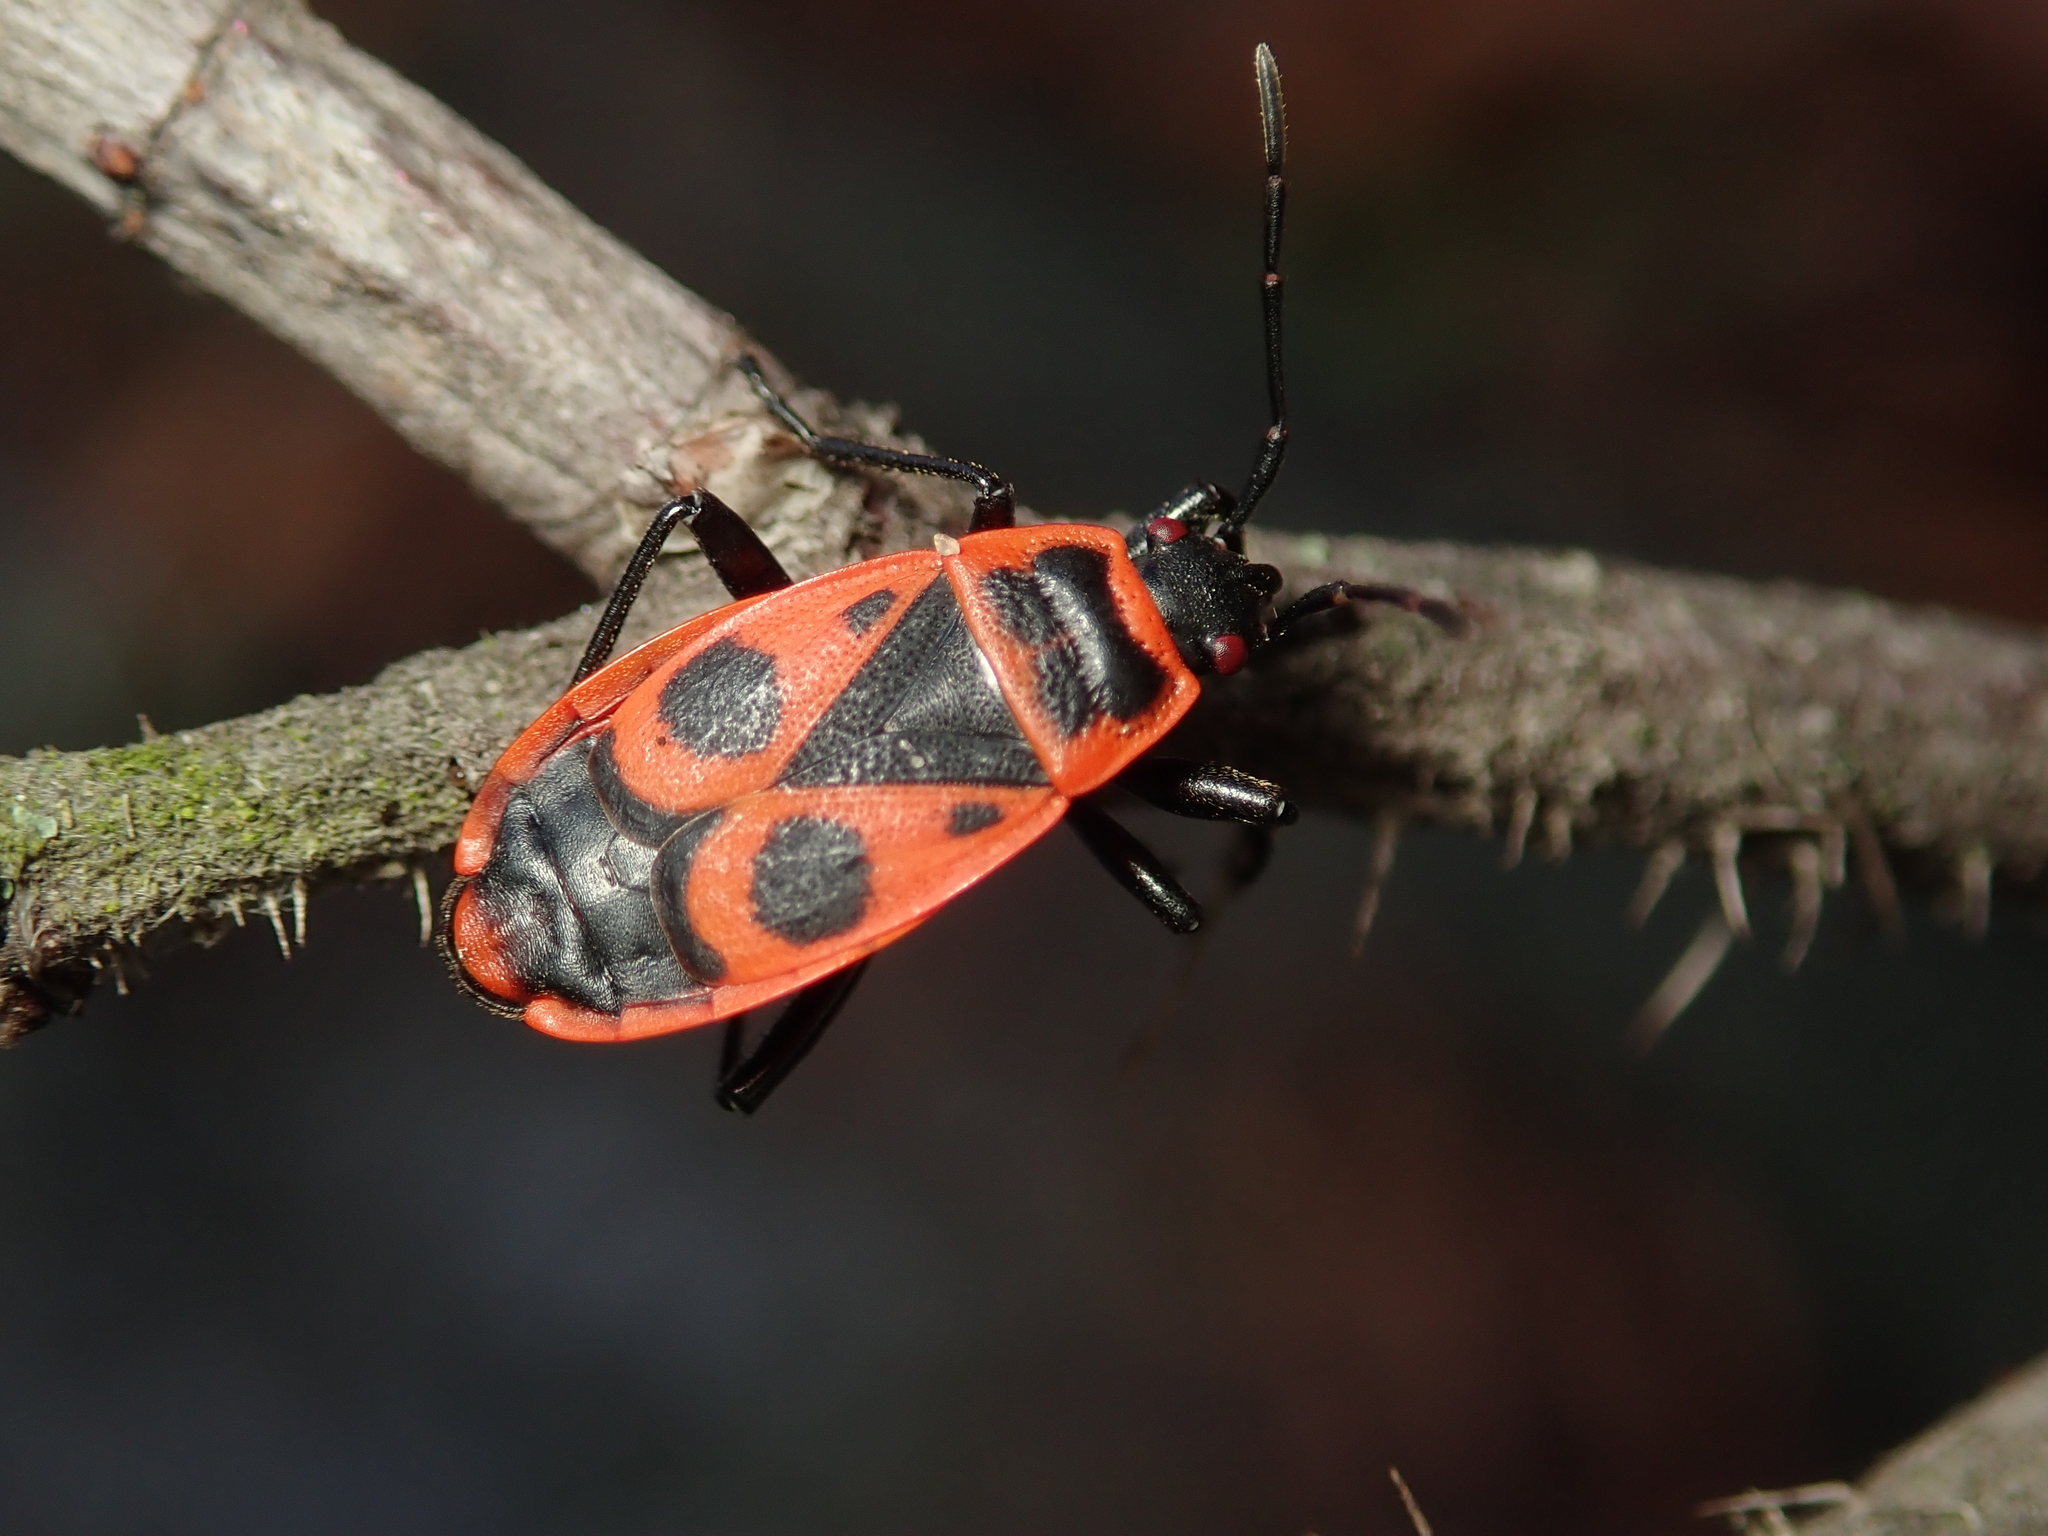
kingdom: Animalia
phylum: Arthropoda
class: Insecta
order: Hemiptera
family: Pyrrhocoridae
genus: Pyrrhocoris
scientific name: Pyrrhocoris apterus
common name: Firebug
